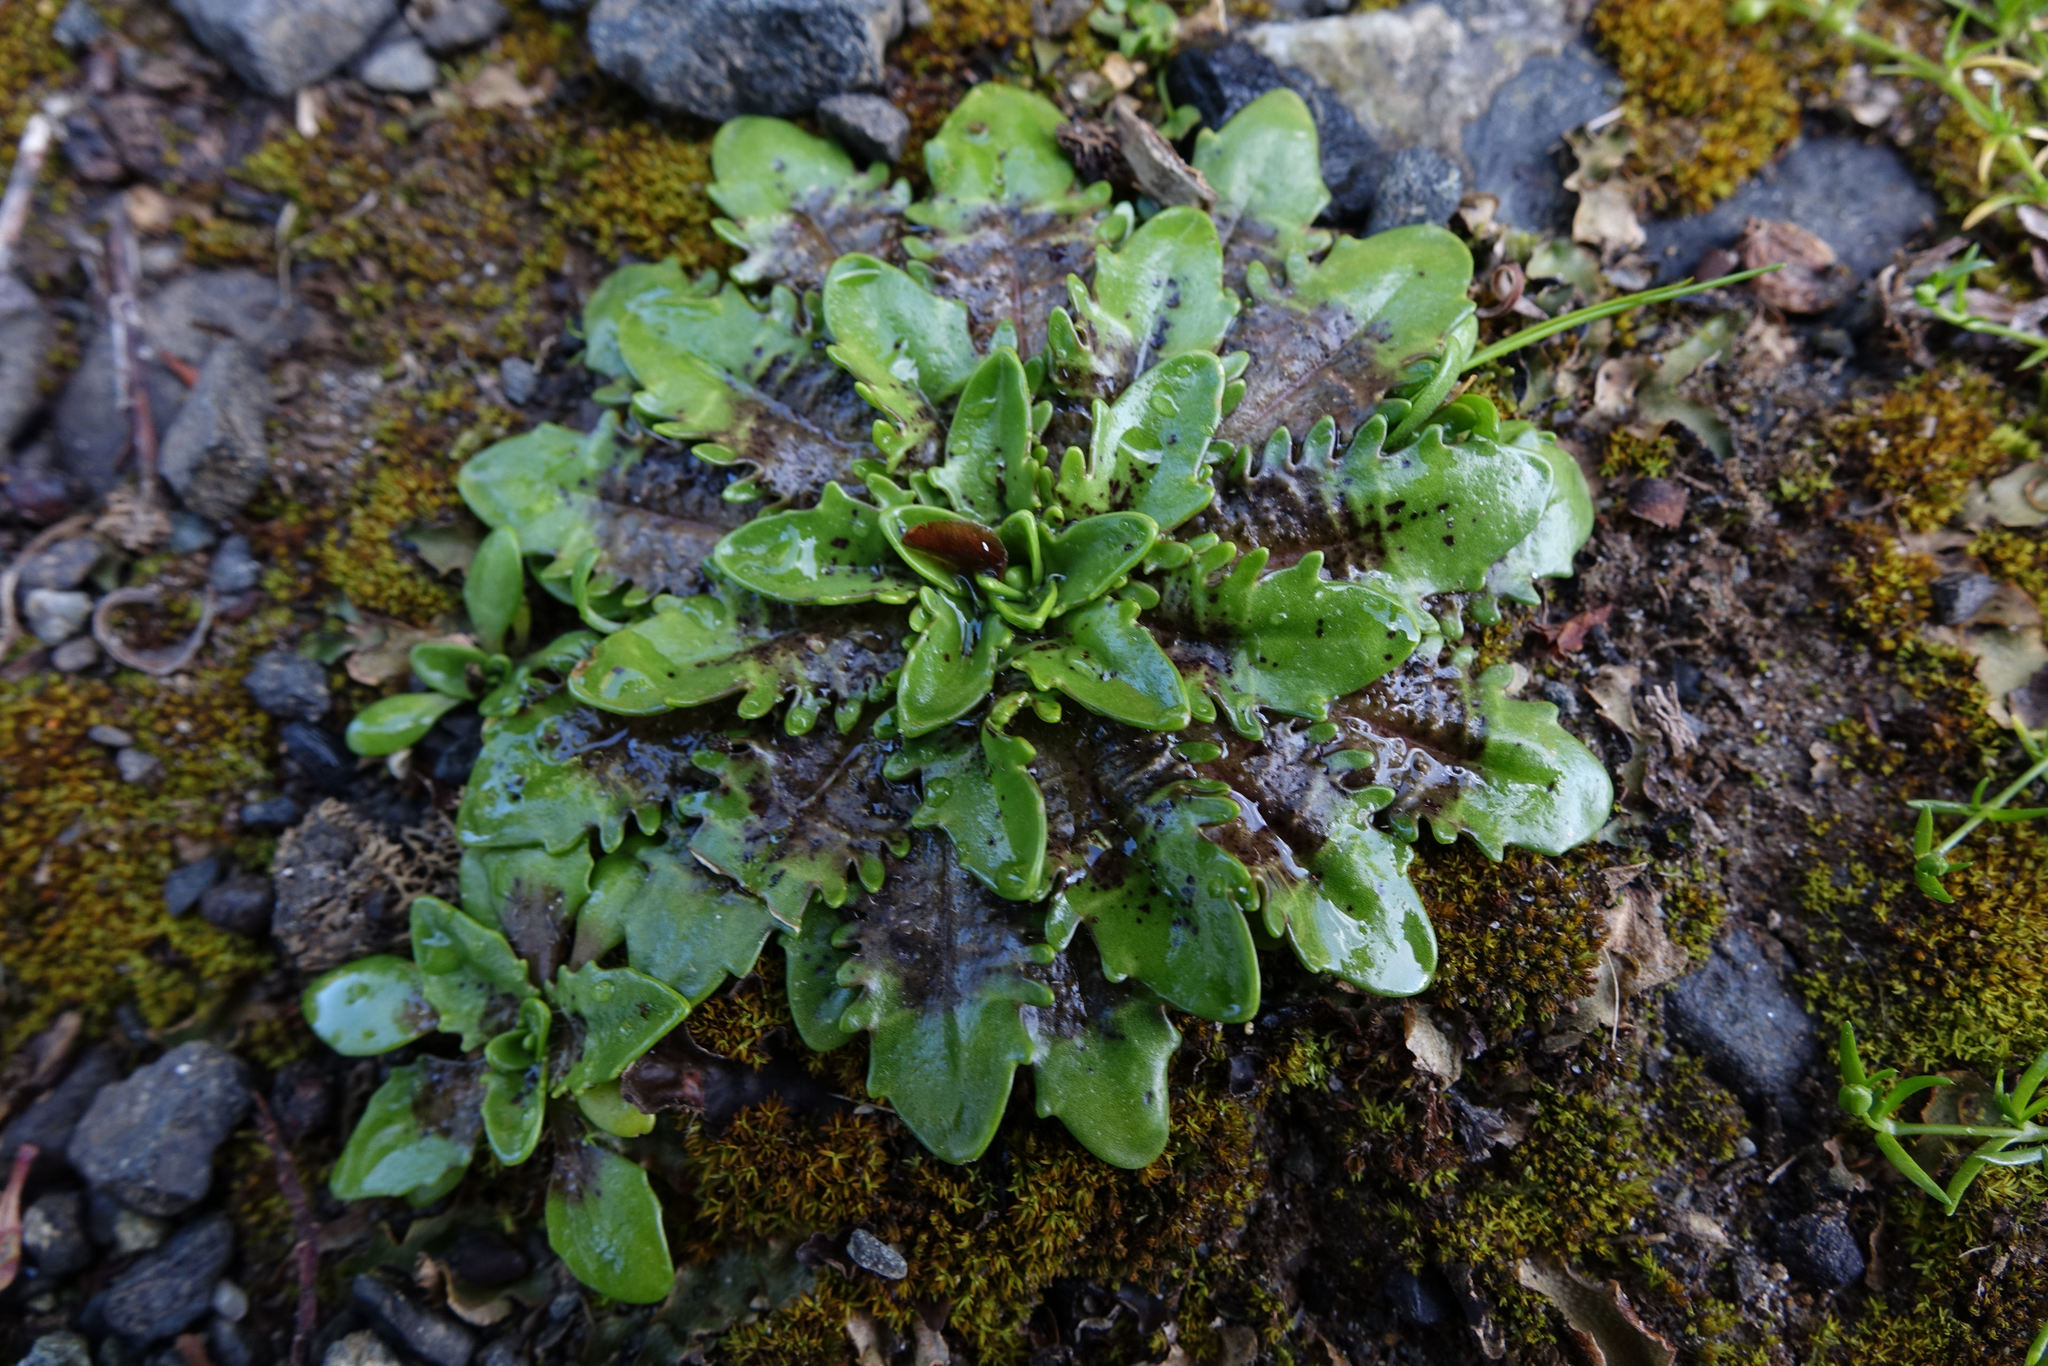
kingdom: Plantae
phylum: Tracheophyta
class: Magnoliopsida
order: Lamiales
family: Plantaginaceae
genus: Plantago
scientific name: Plantago triandra
